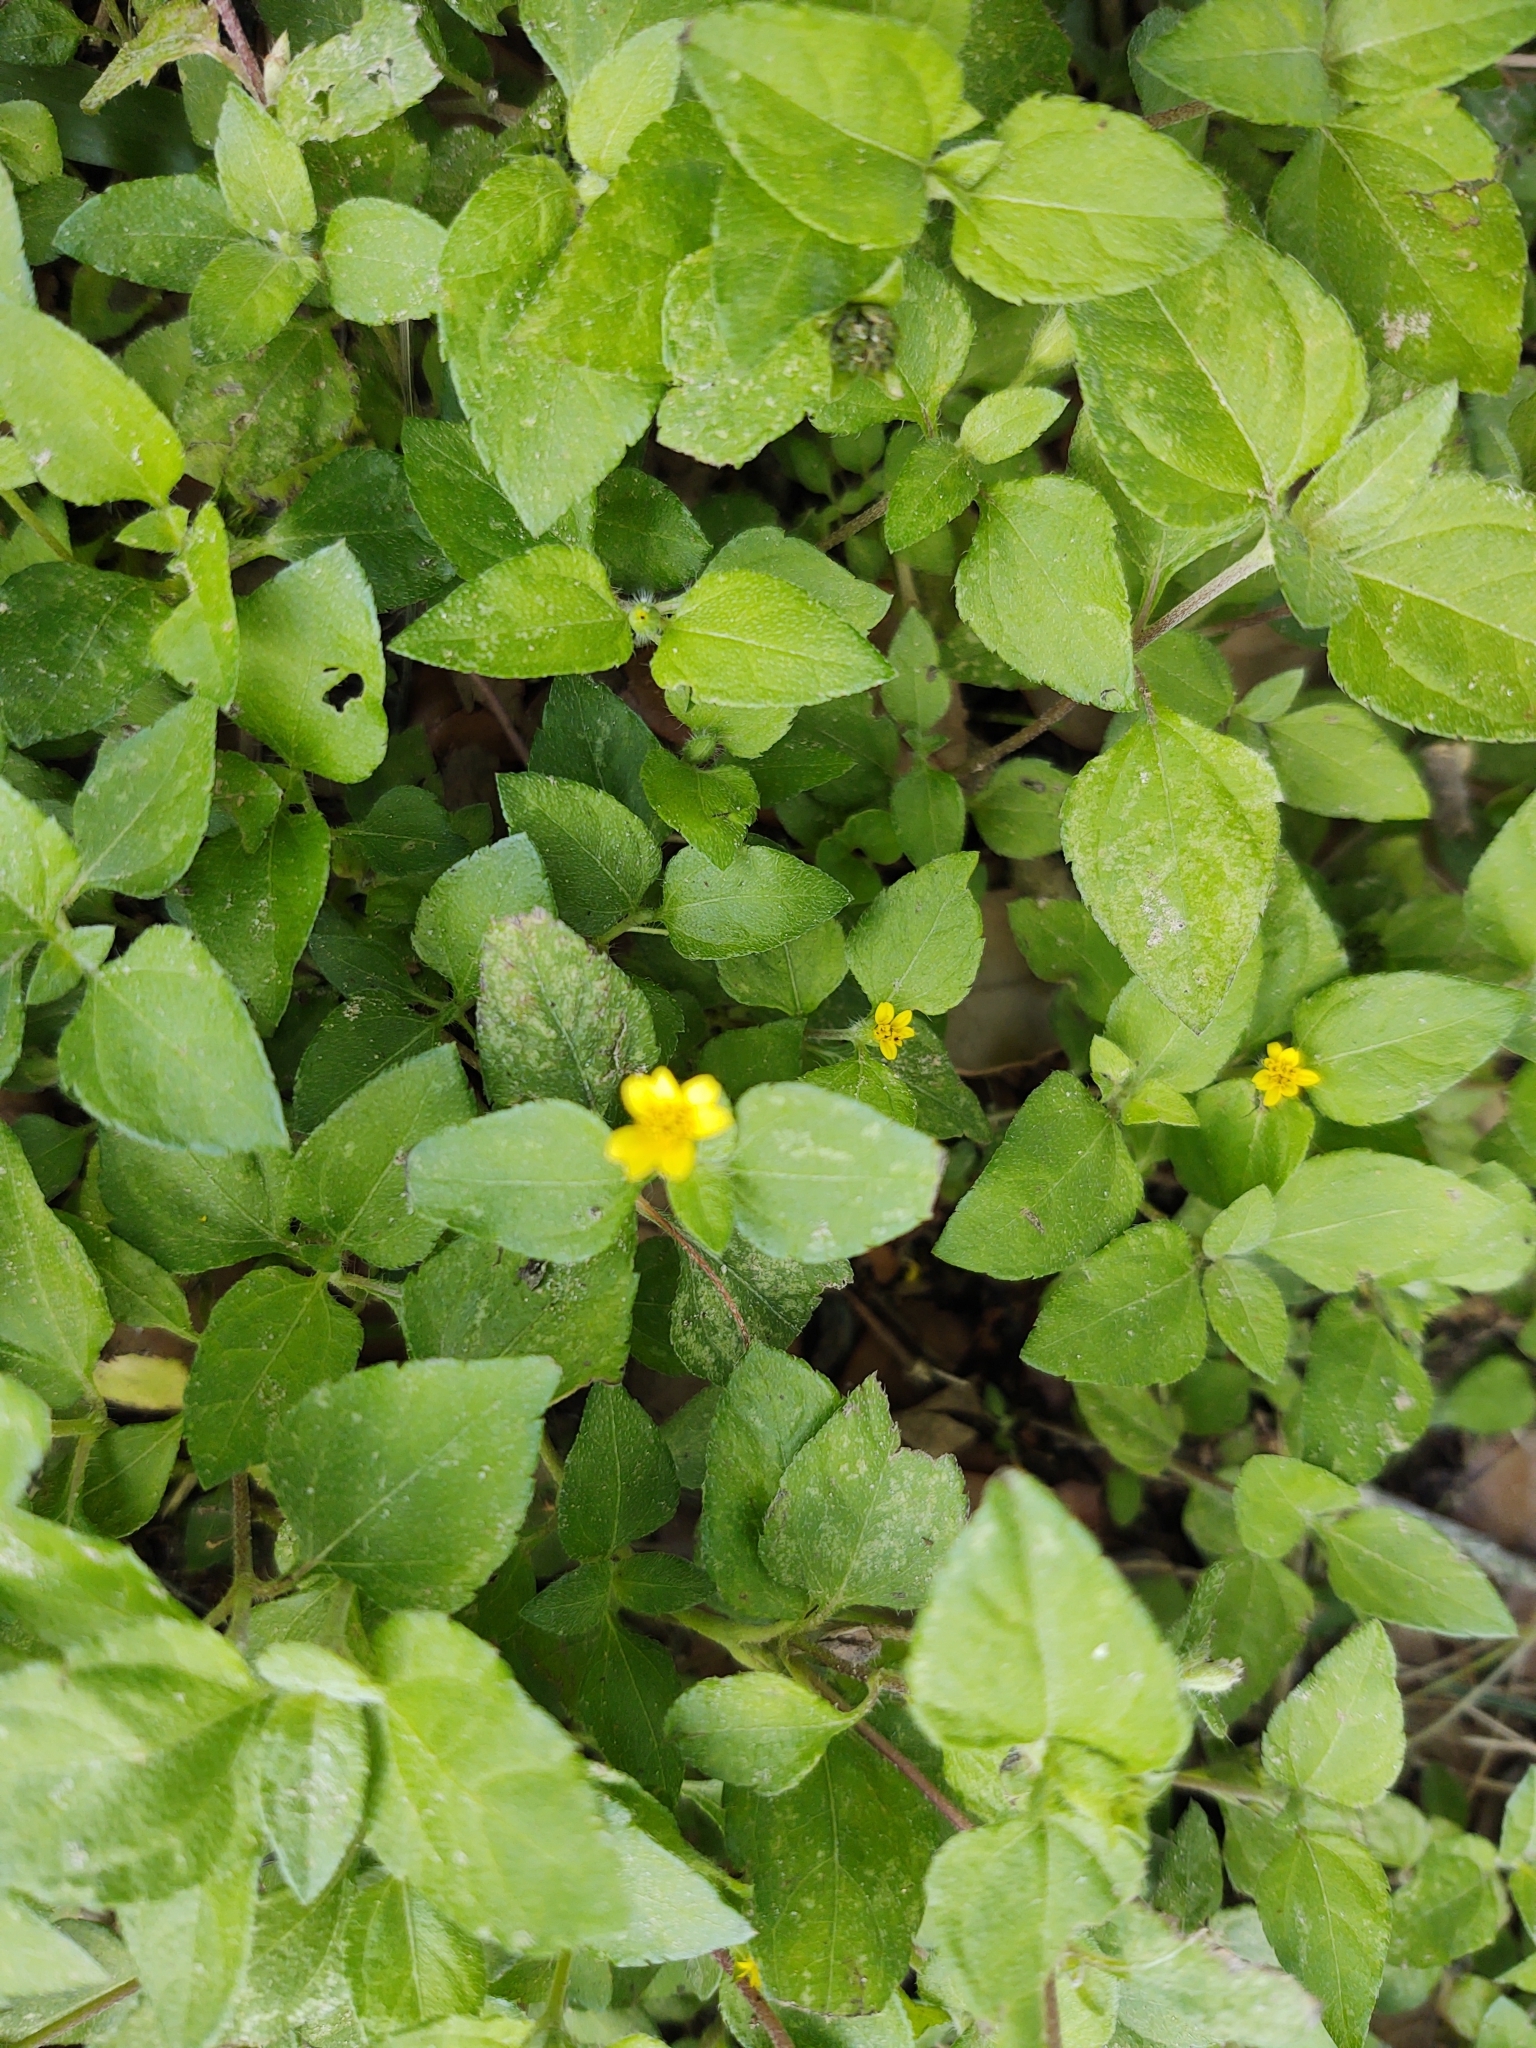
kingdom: Plantae
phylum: Tracheophyta
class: Magnoliopsida
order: Asterales
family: Asteraceae
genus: Calyptocarpus
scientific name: Calyptocarpus vialis
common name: Straggler daisy
